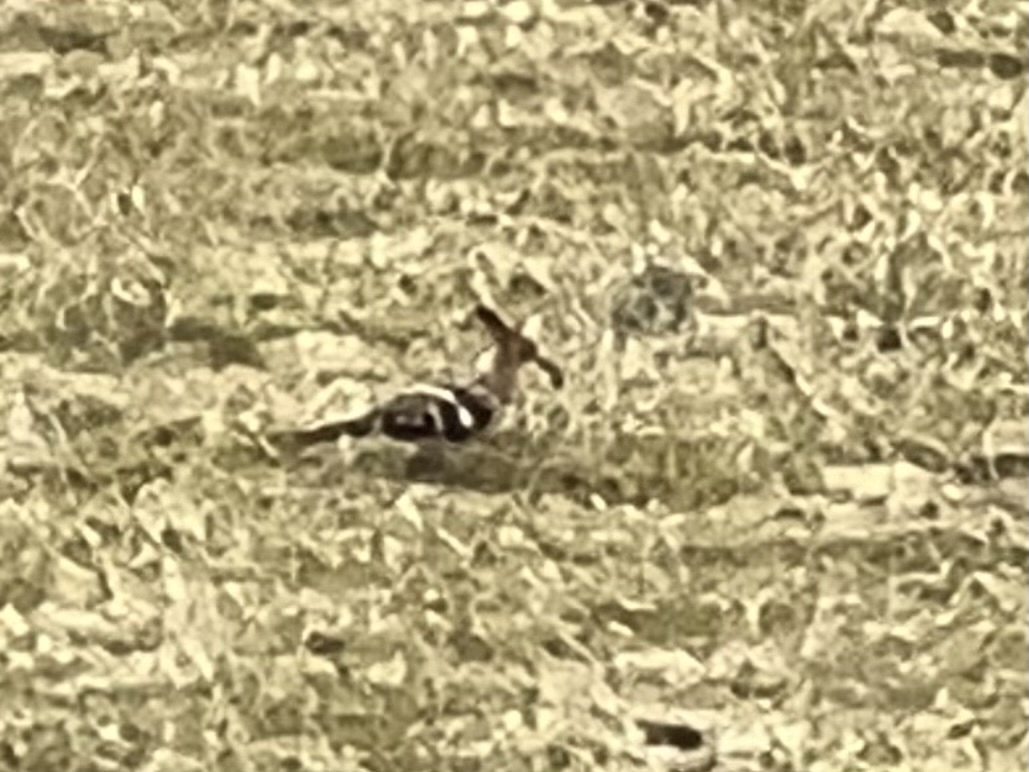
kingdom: Animalia
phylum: Chordata
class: Aves
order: Bucerotiformes
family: Upupidae
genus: Upupa
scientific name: Upupa epops
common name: Eurasian hoopoe
